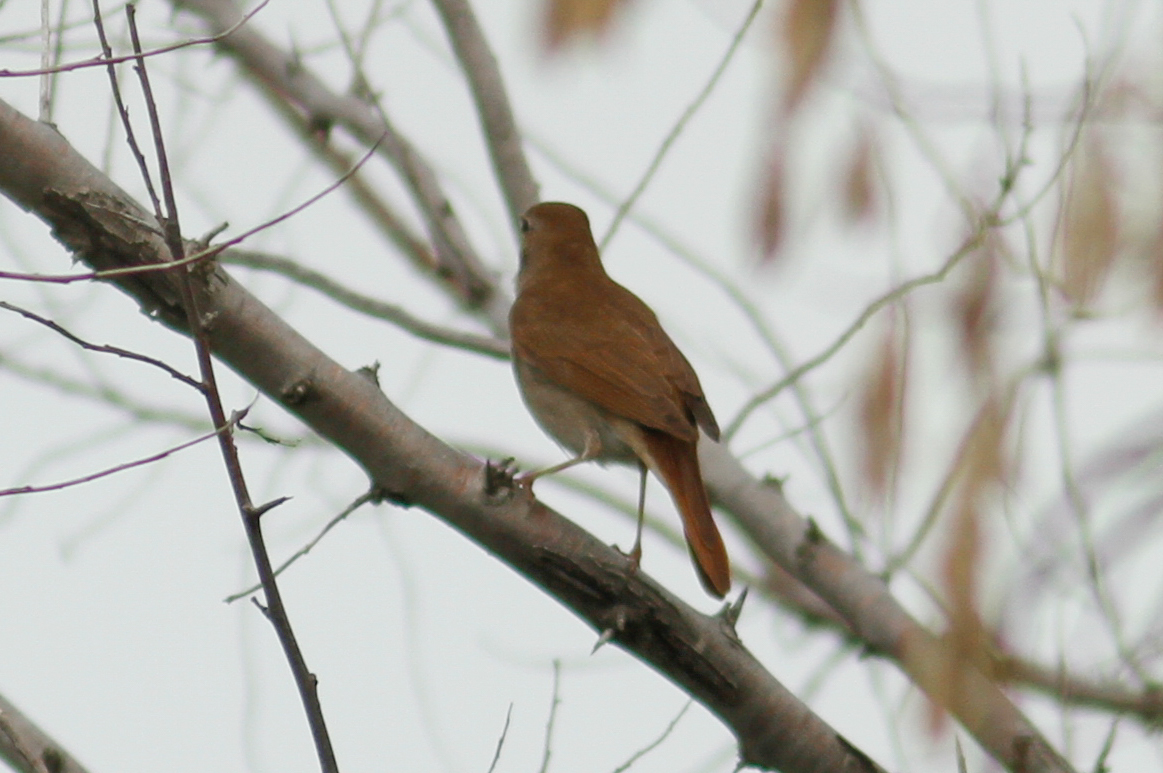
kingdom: Animalia
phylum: Chordata
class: Aves
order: Passeriformes
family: Muscicapidae
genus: Luscinia
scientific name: Luscinia megarhynchos
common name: Common nightingale
